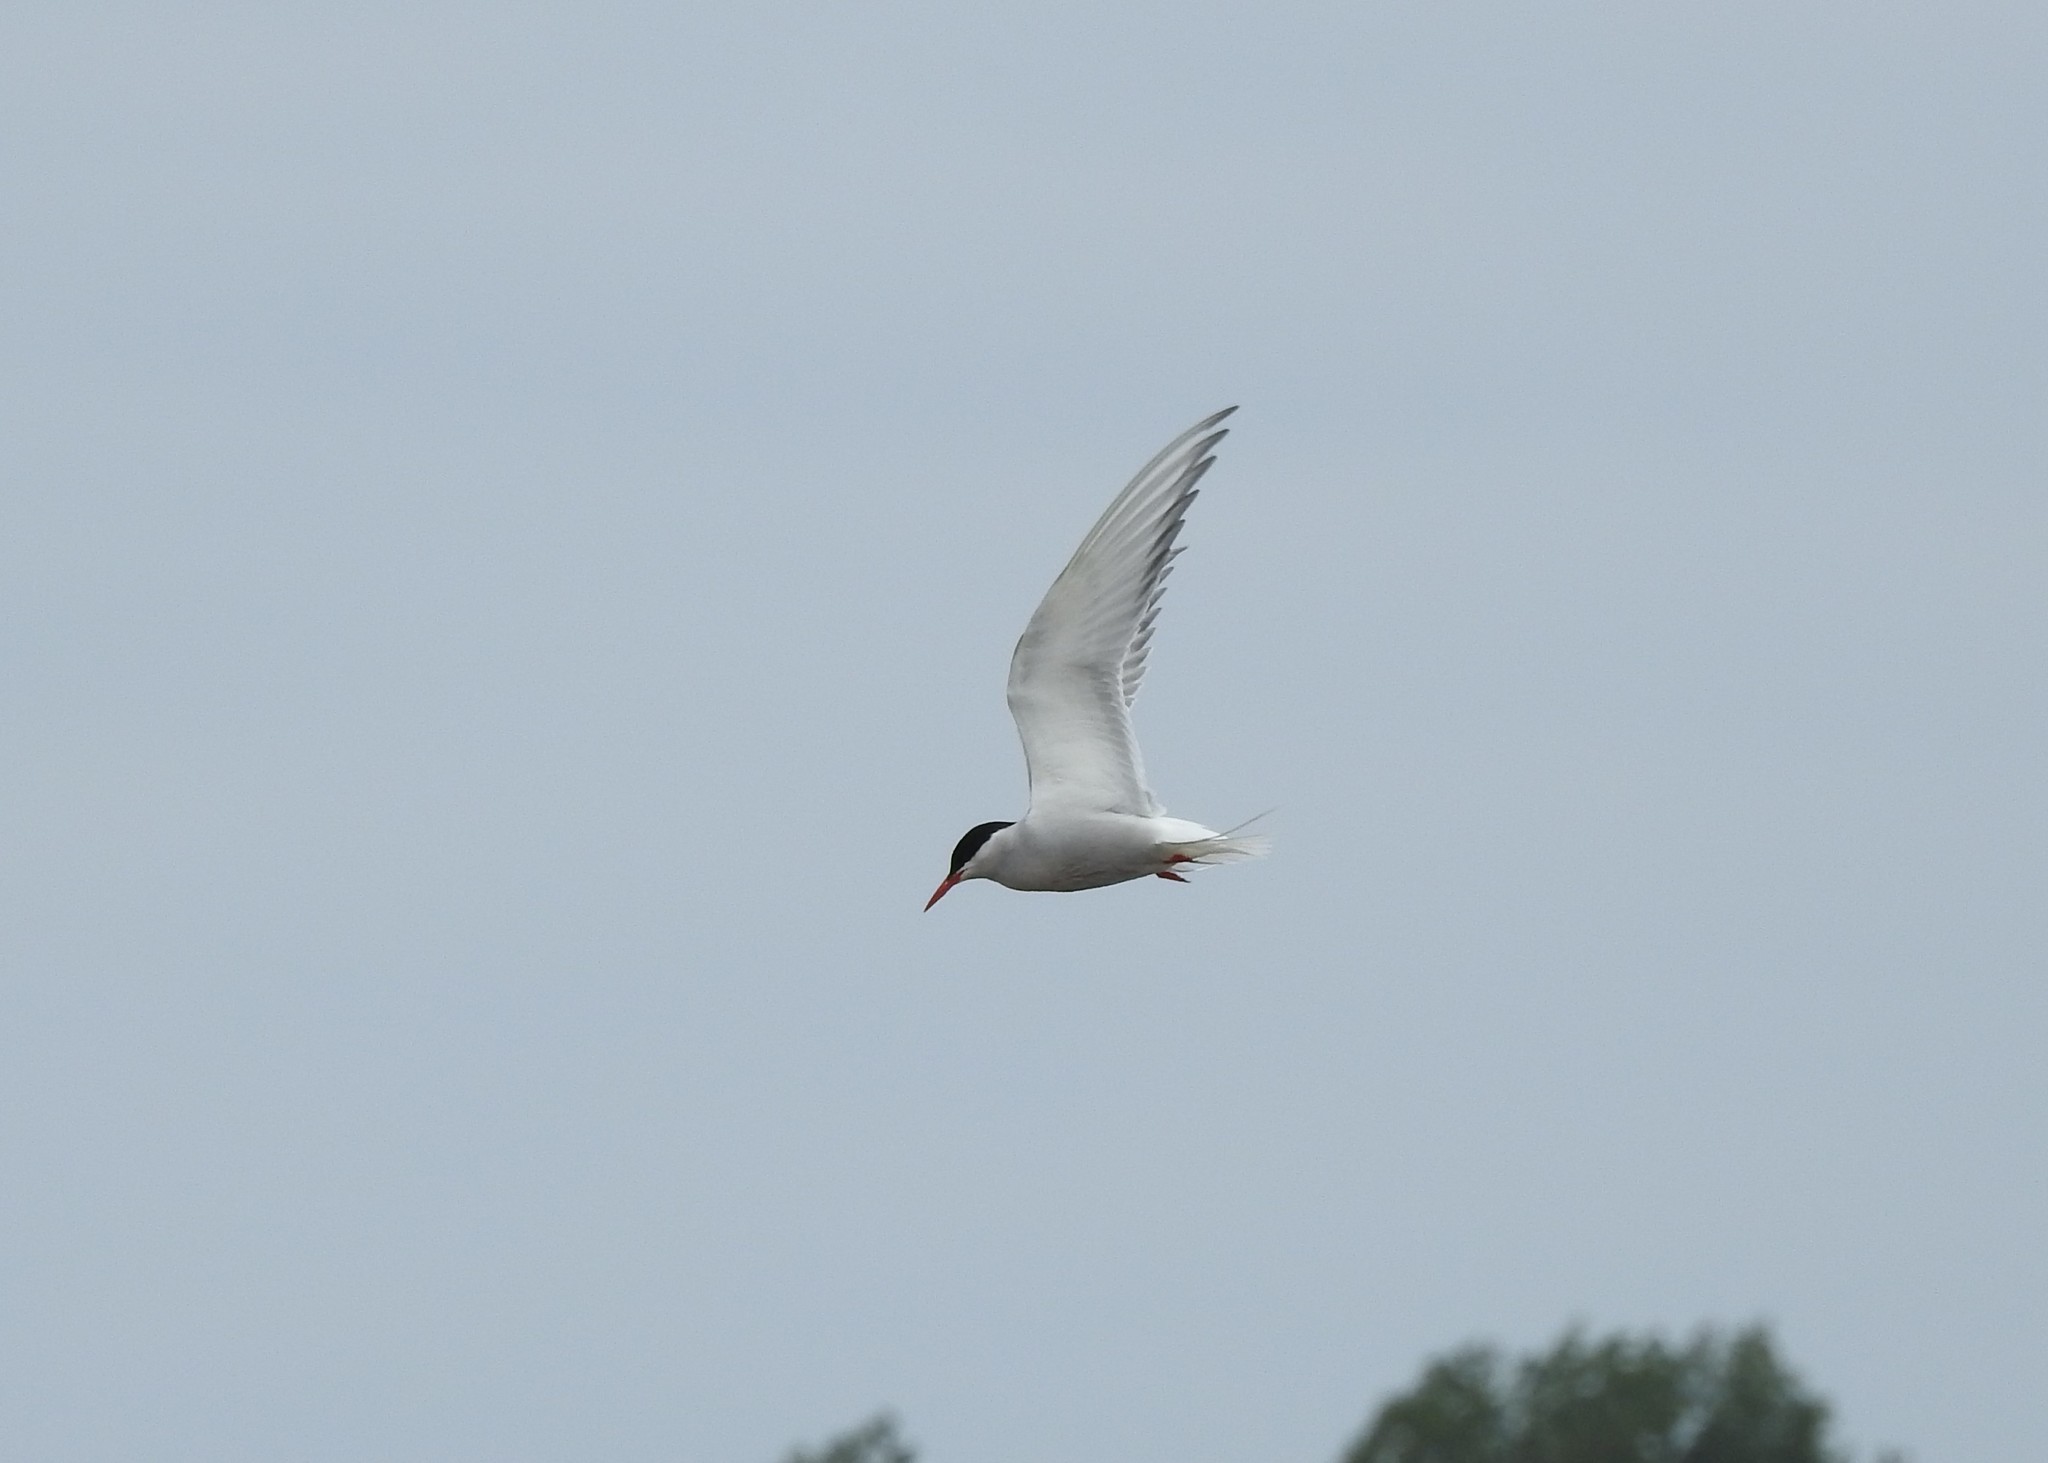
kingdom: Animalia
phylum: Chordata
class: Aves
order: Charadriiformes
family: Laridae
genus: Sterna
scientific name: Sterna paradisaea
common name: Arctic tern
